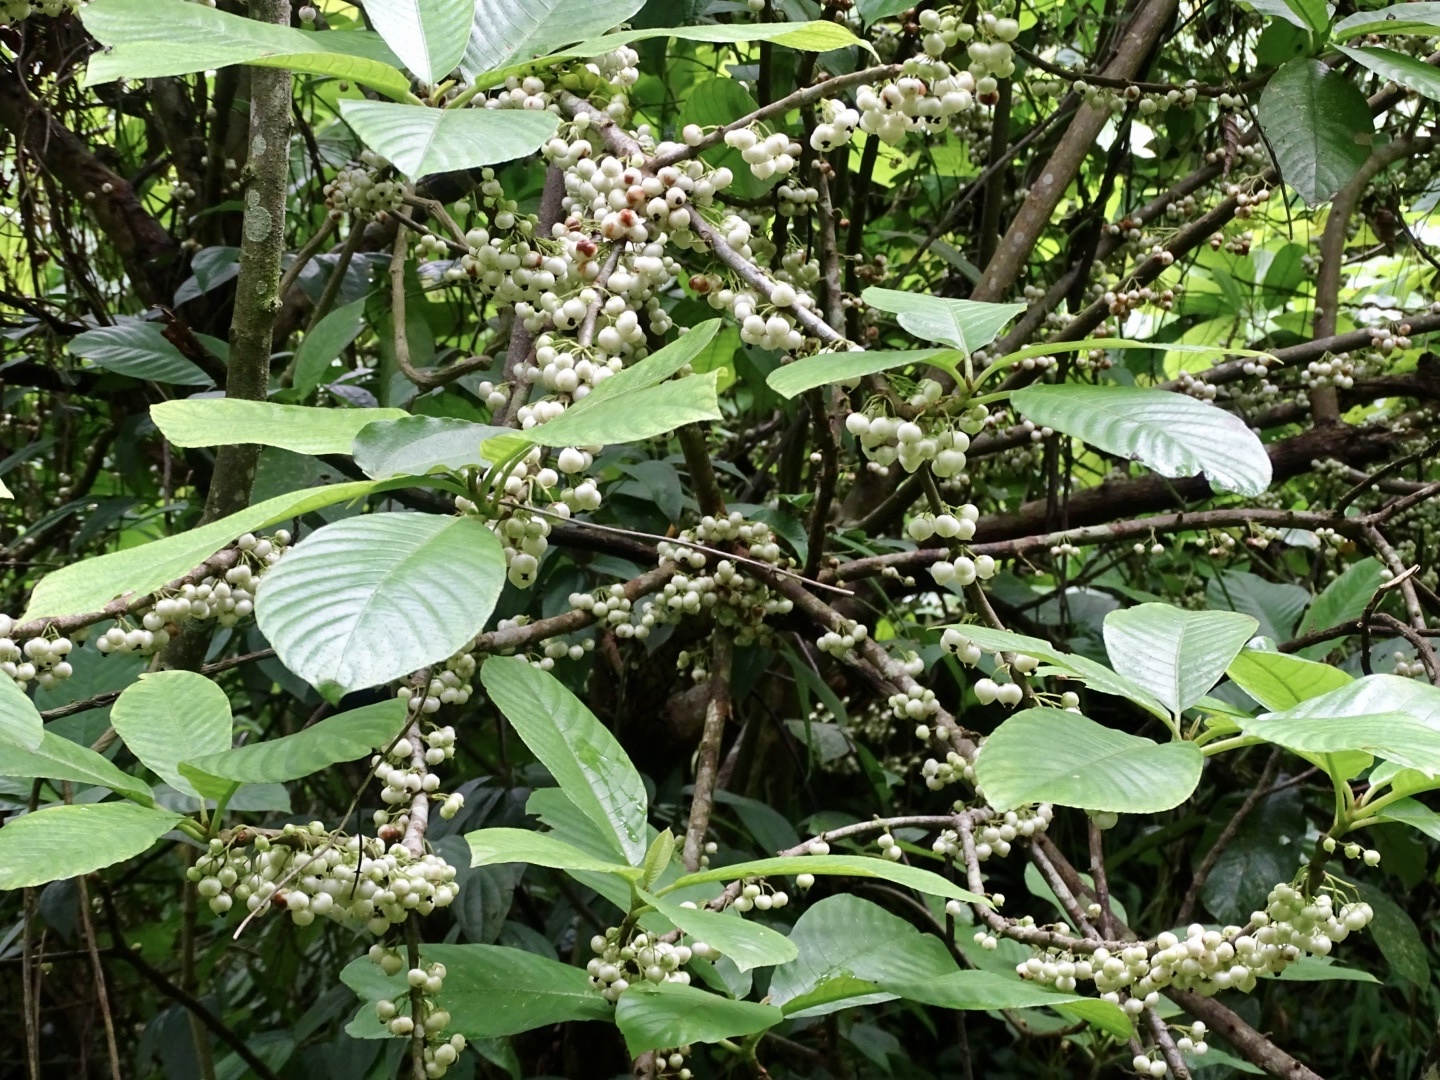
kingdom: Plantae
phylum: Tracheophyta
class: Magnoliopsida
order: Ericales
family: Actinidiaceae
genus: Saurauia
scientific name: Saurauia tristyla
